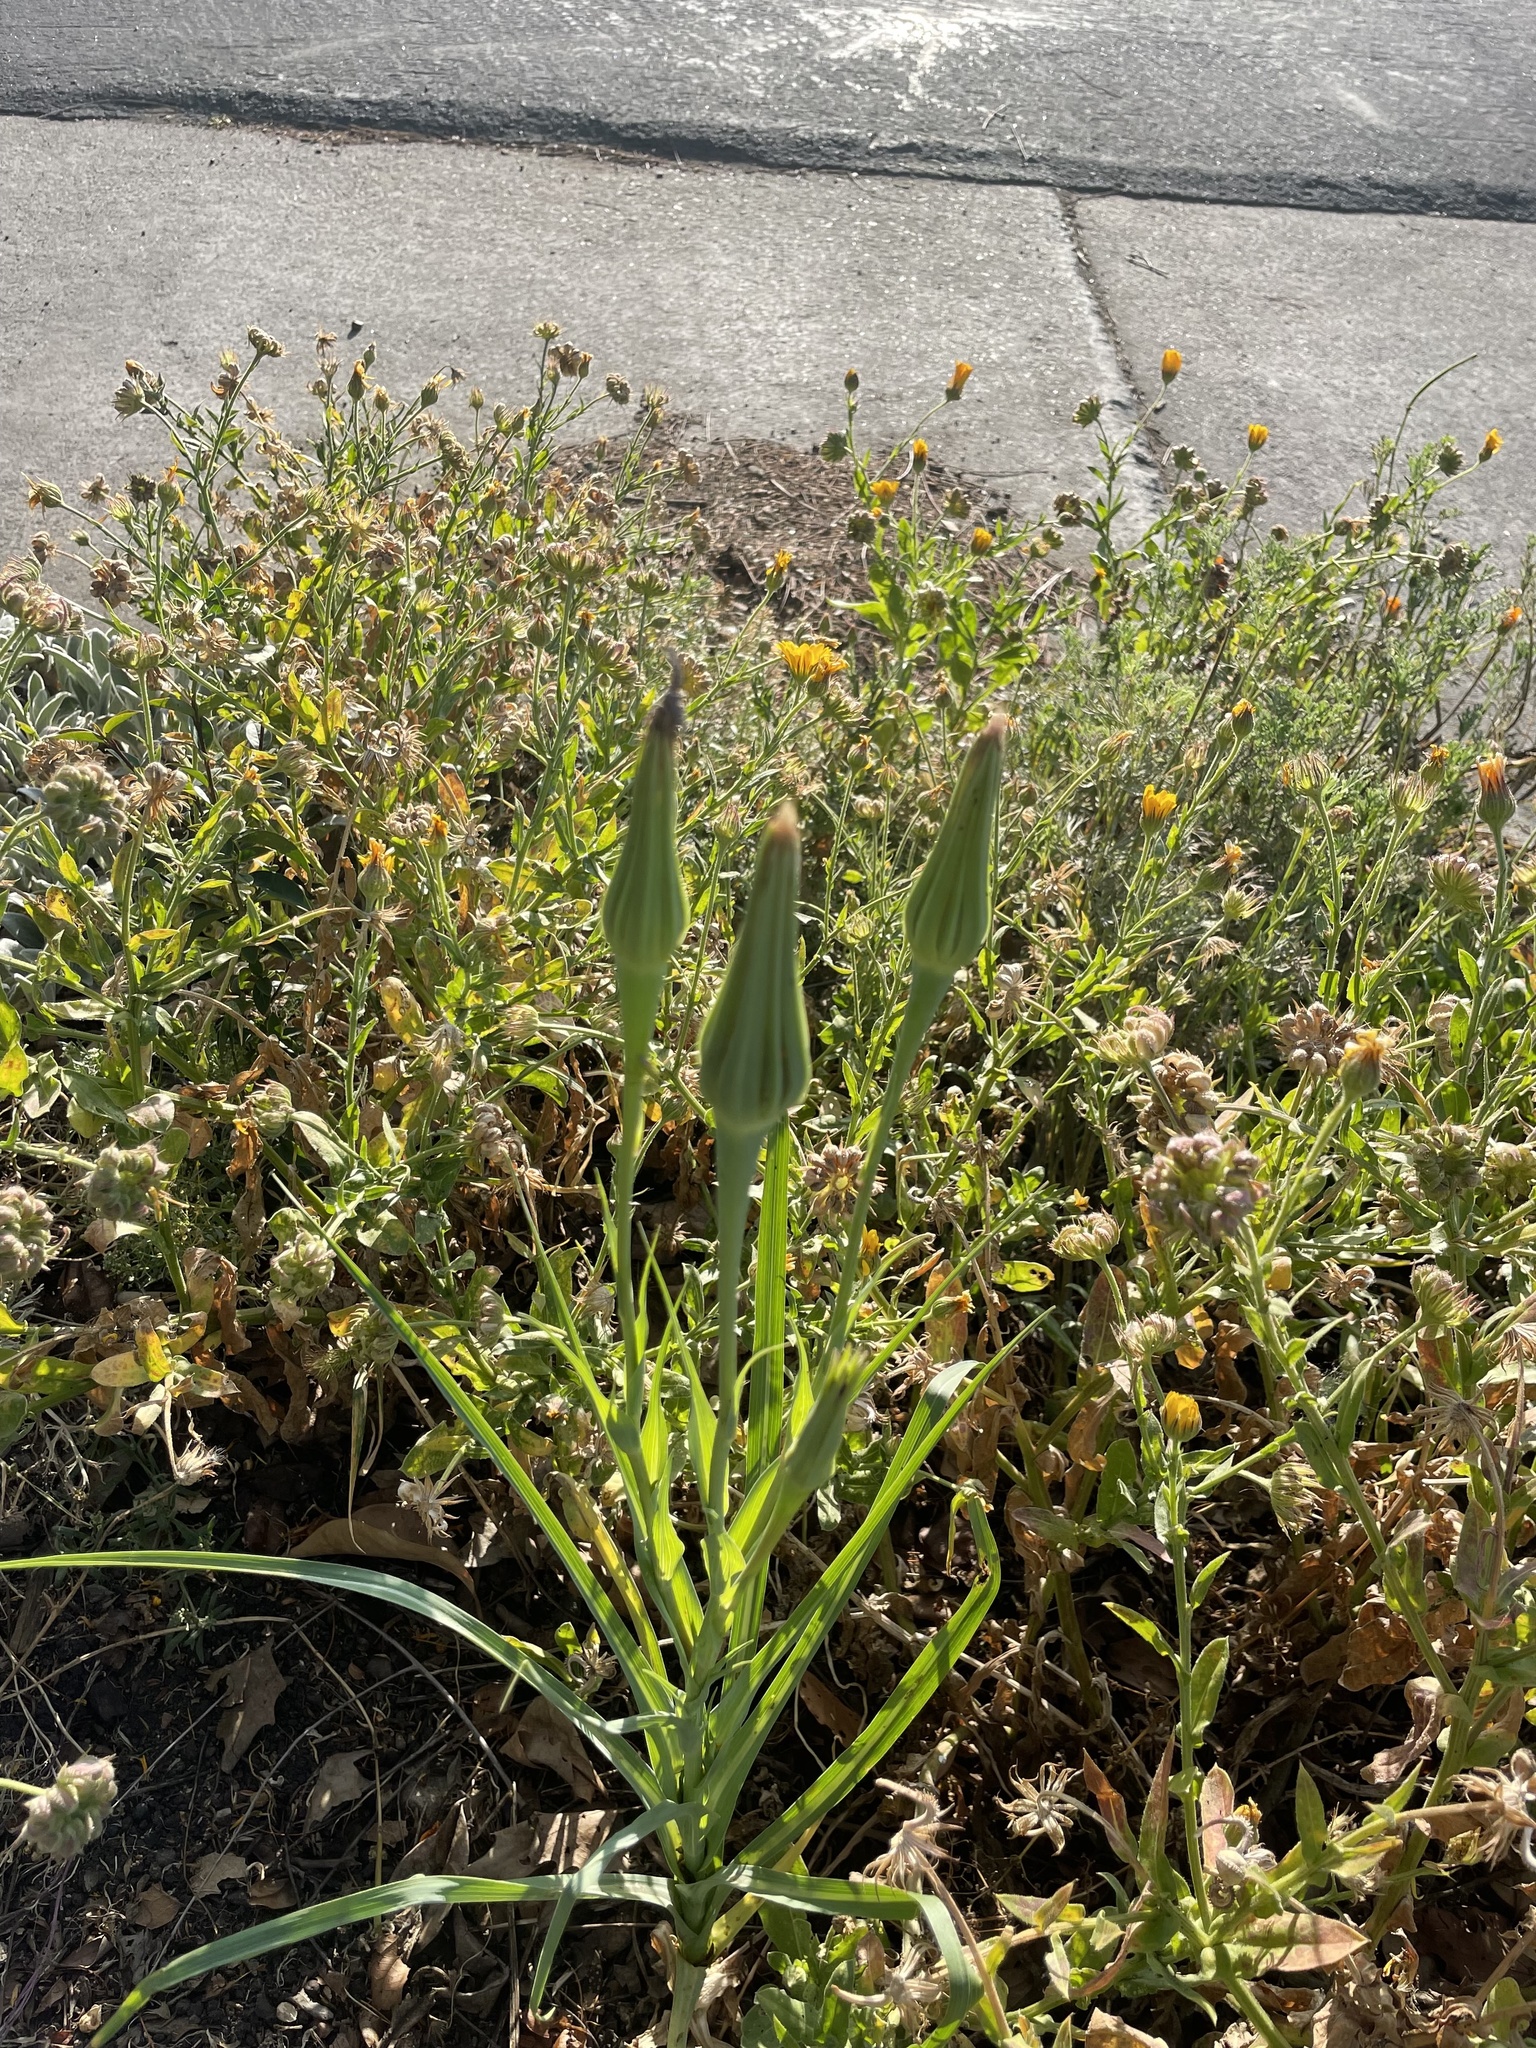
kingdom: Plantae
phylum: Tracheophyta
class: Magnoliopsida
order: Asterales
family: Asteraceae
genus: Tragopogon
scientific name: Tragopogon porrifolius
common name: Salsify
